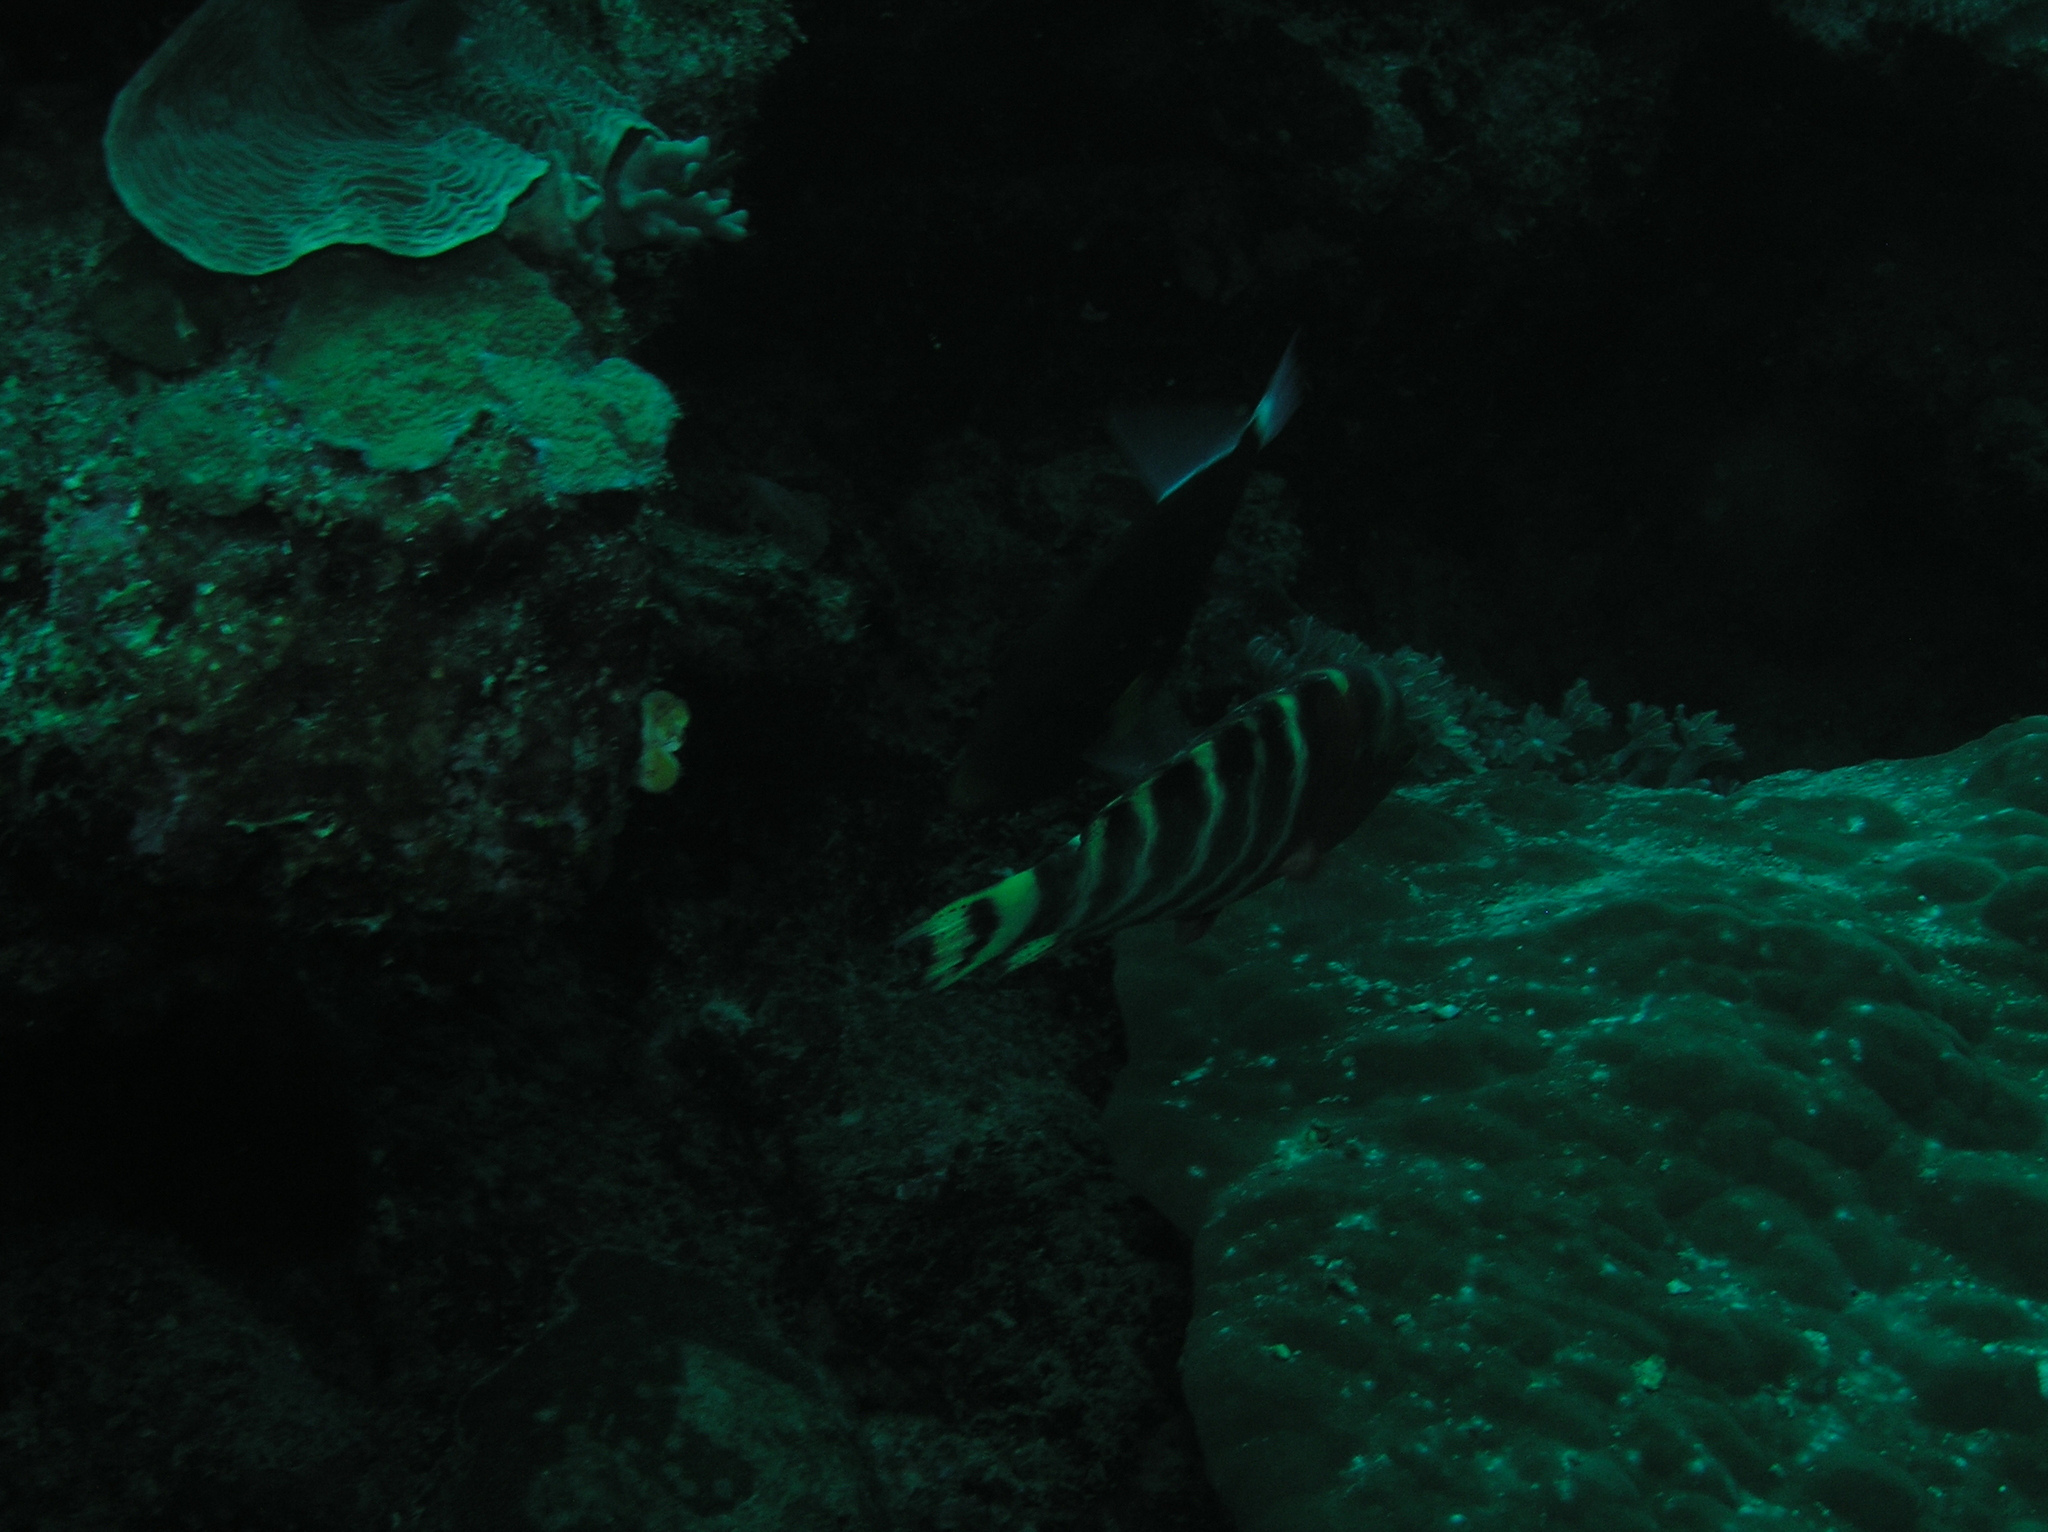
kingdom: Animalia
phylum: Chordata
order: Tetraodontiformes
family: Balistidae
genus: Melichthys
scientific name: Melichthys vidua
